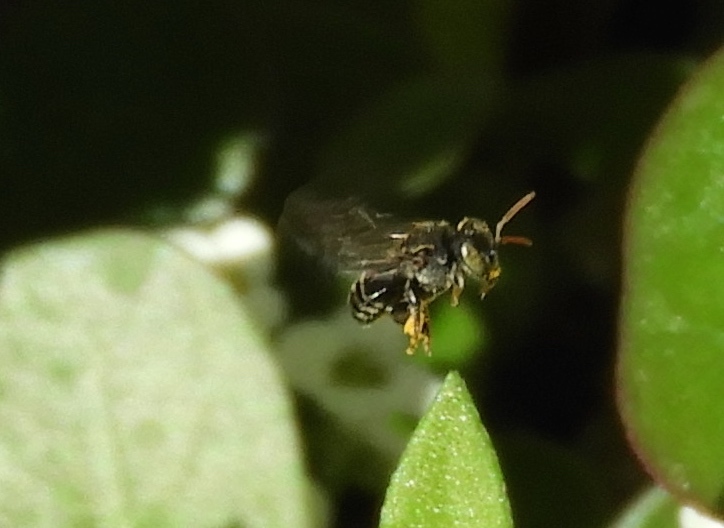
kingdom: Animalia
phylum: Arthropoda
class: Insecta
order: Hymenoptera
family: Apidae
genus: Nannotrigona
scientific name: Nannotrigona perilampoides
